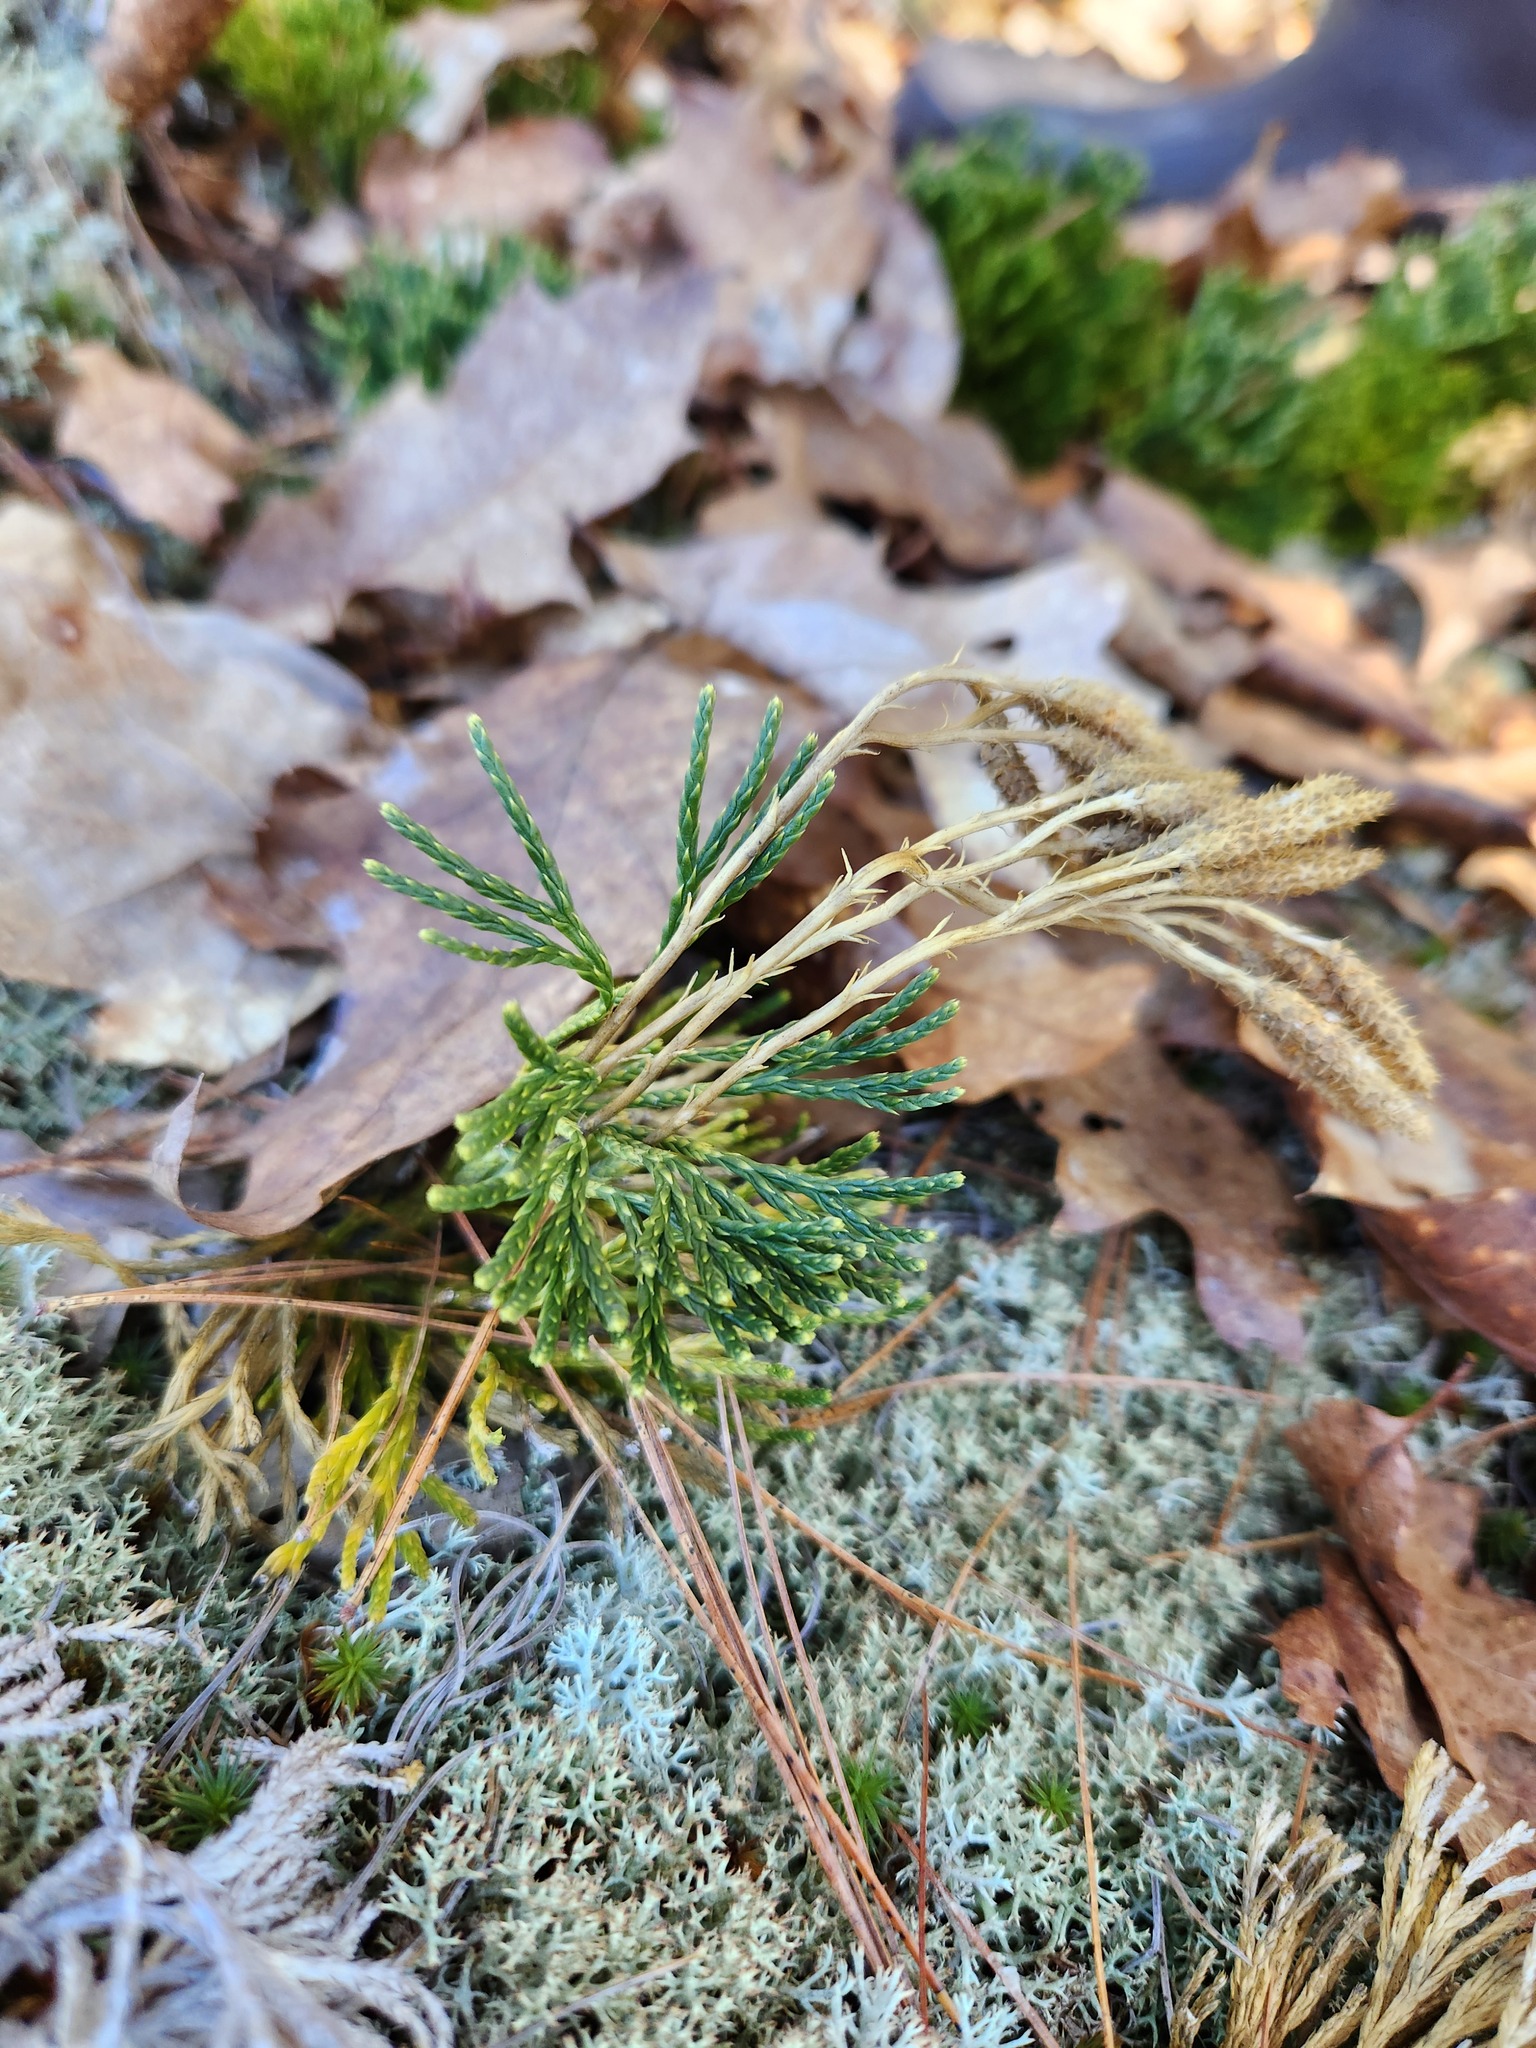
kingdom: Plantae
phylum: Tracheophyta
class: Lycopodiopsida
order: Lycopodiales
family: Lycopodiaceae
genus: Diphasiastrum
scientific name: Diphasiastrum tristachyum
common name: Blue ground-cedar
